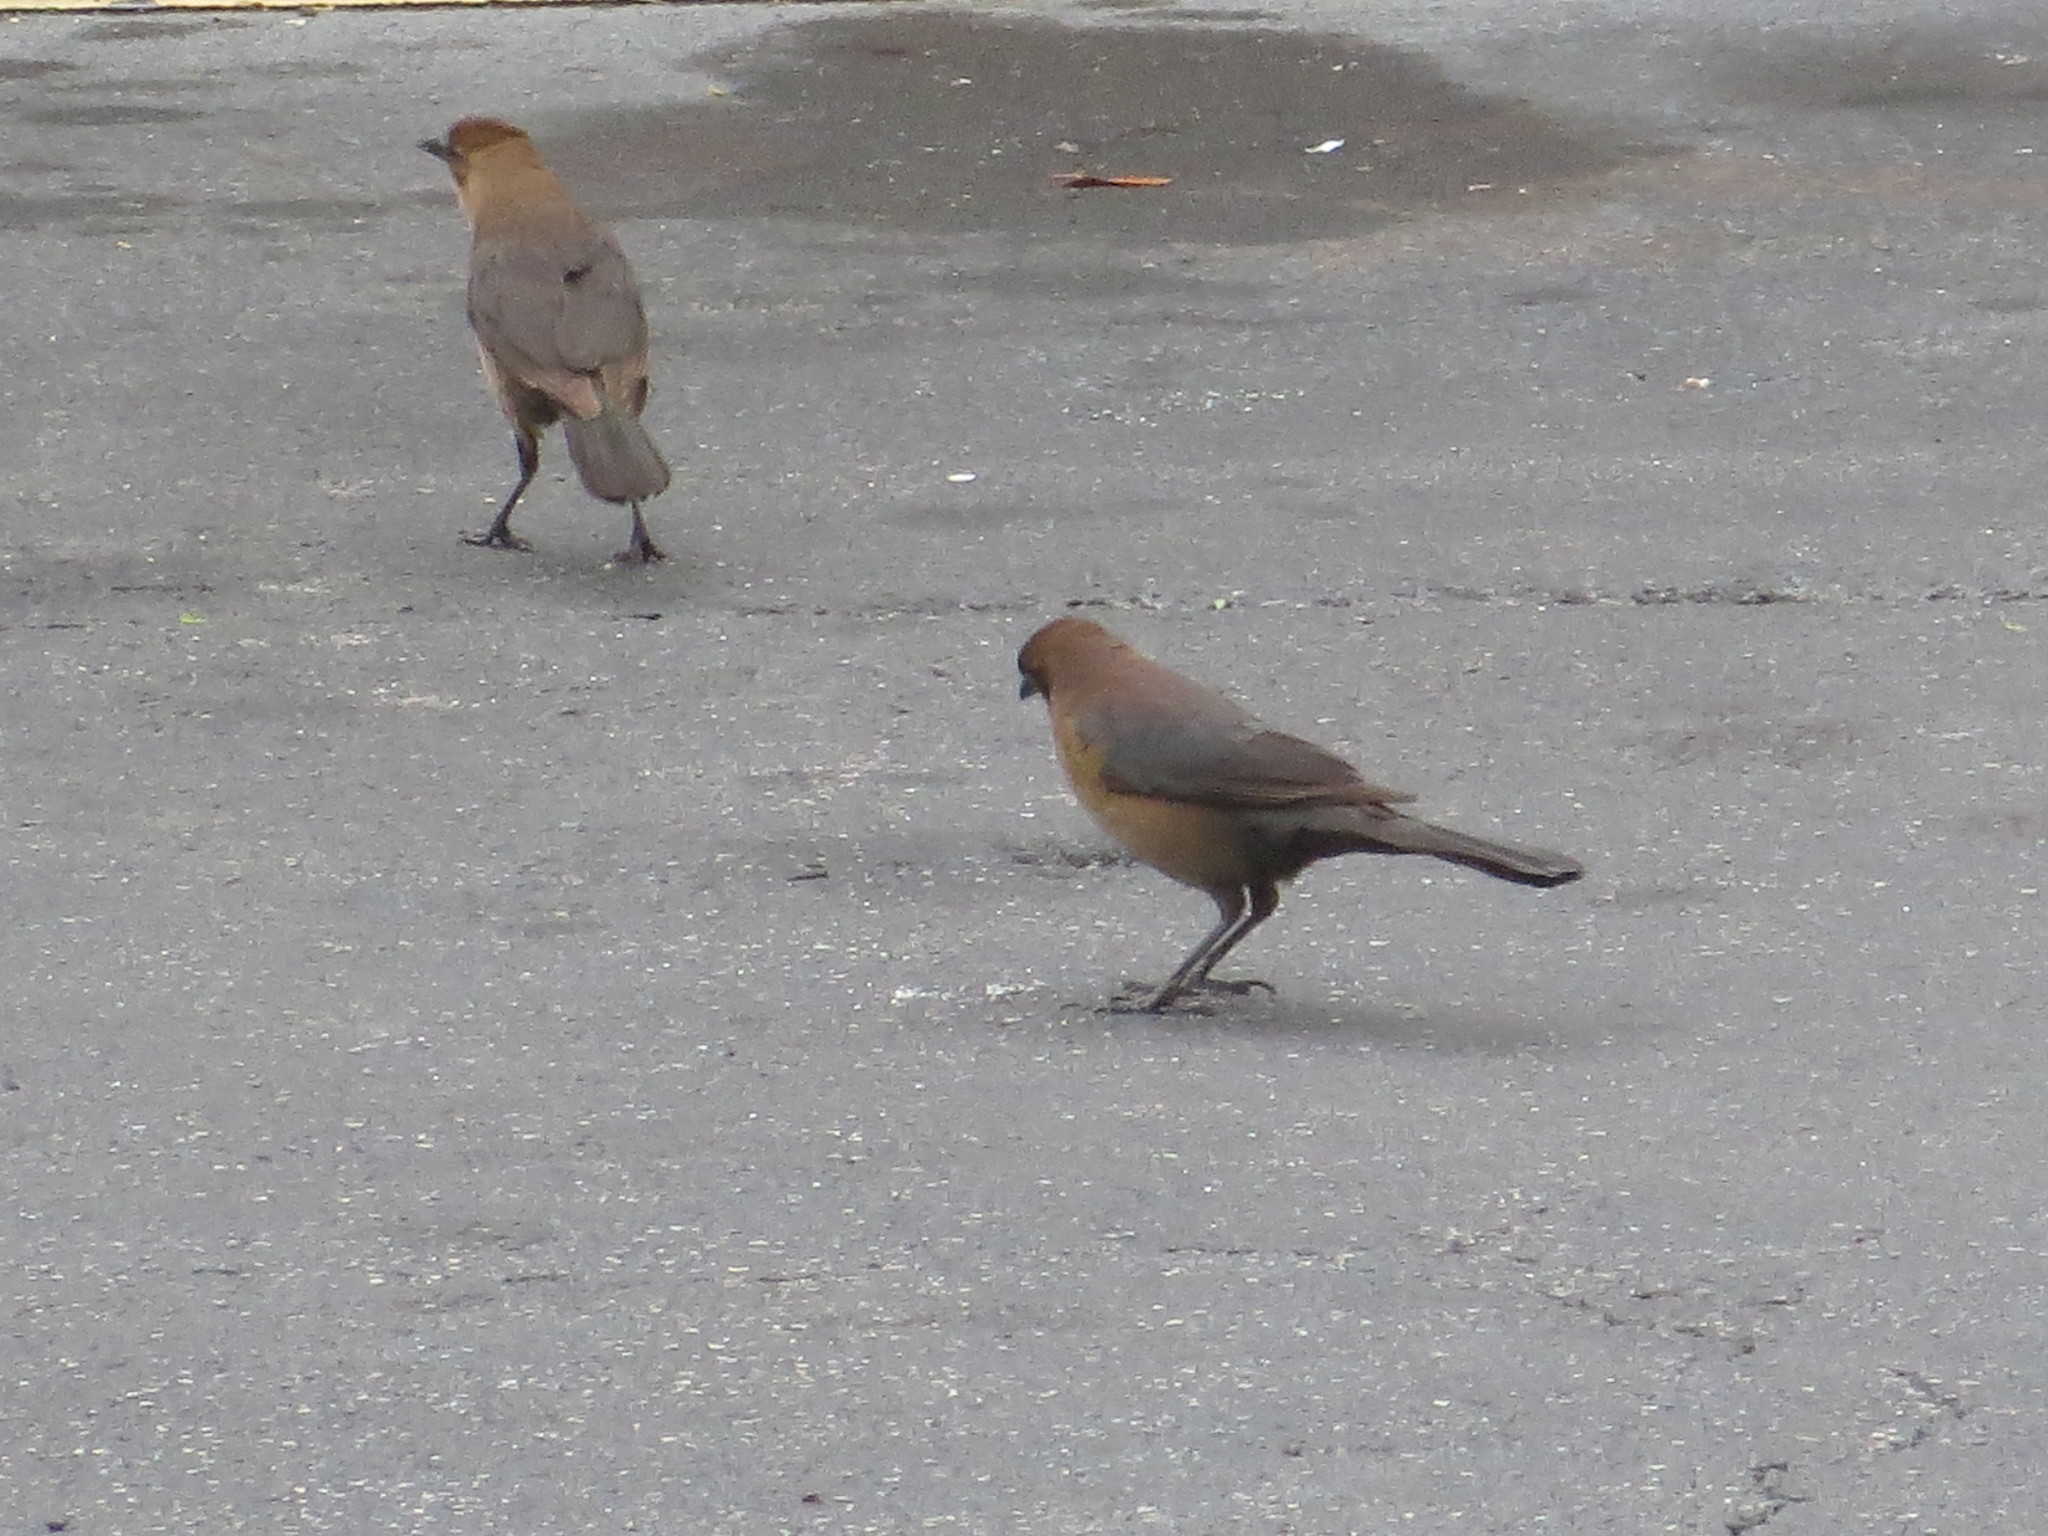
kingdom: Animalia
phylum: Chordata
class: Aves
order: Passeriformes
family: Icteridae
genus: Quiscalus
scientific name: Quiscalus major
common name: Boat-tailed grackle
